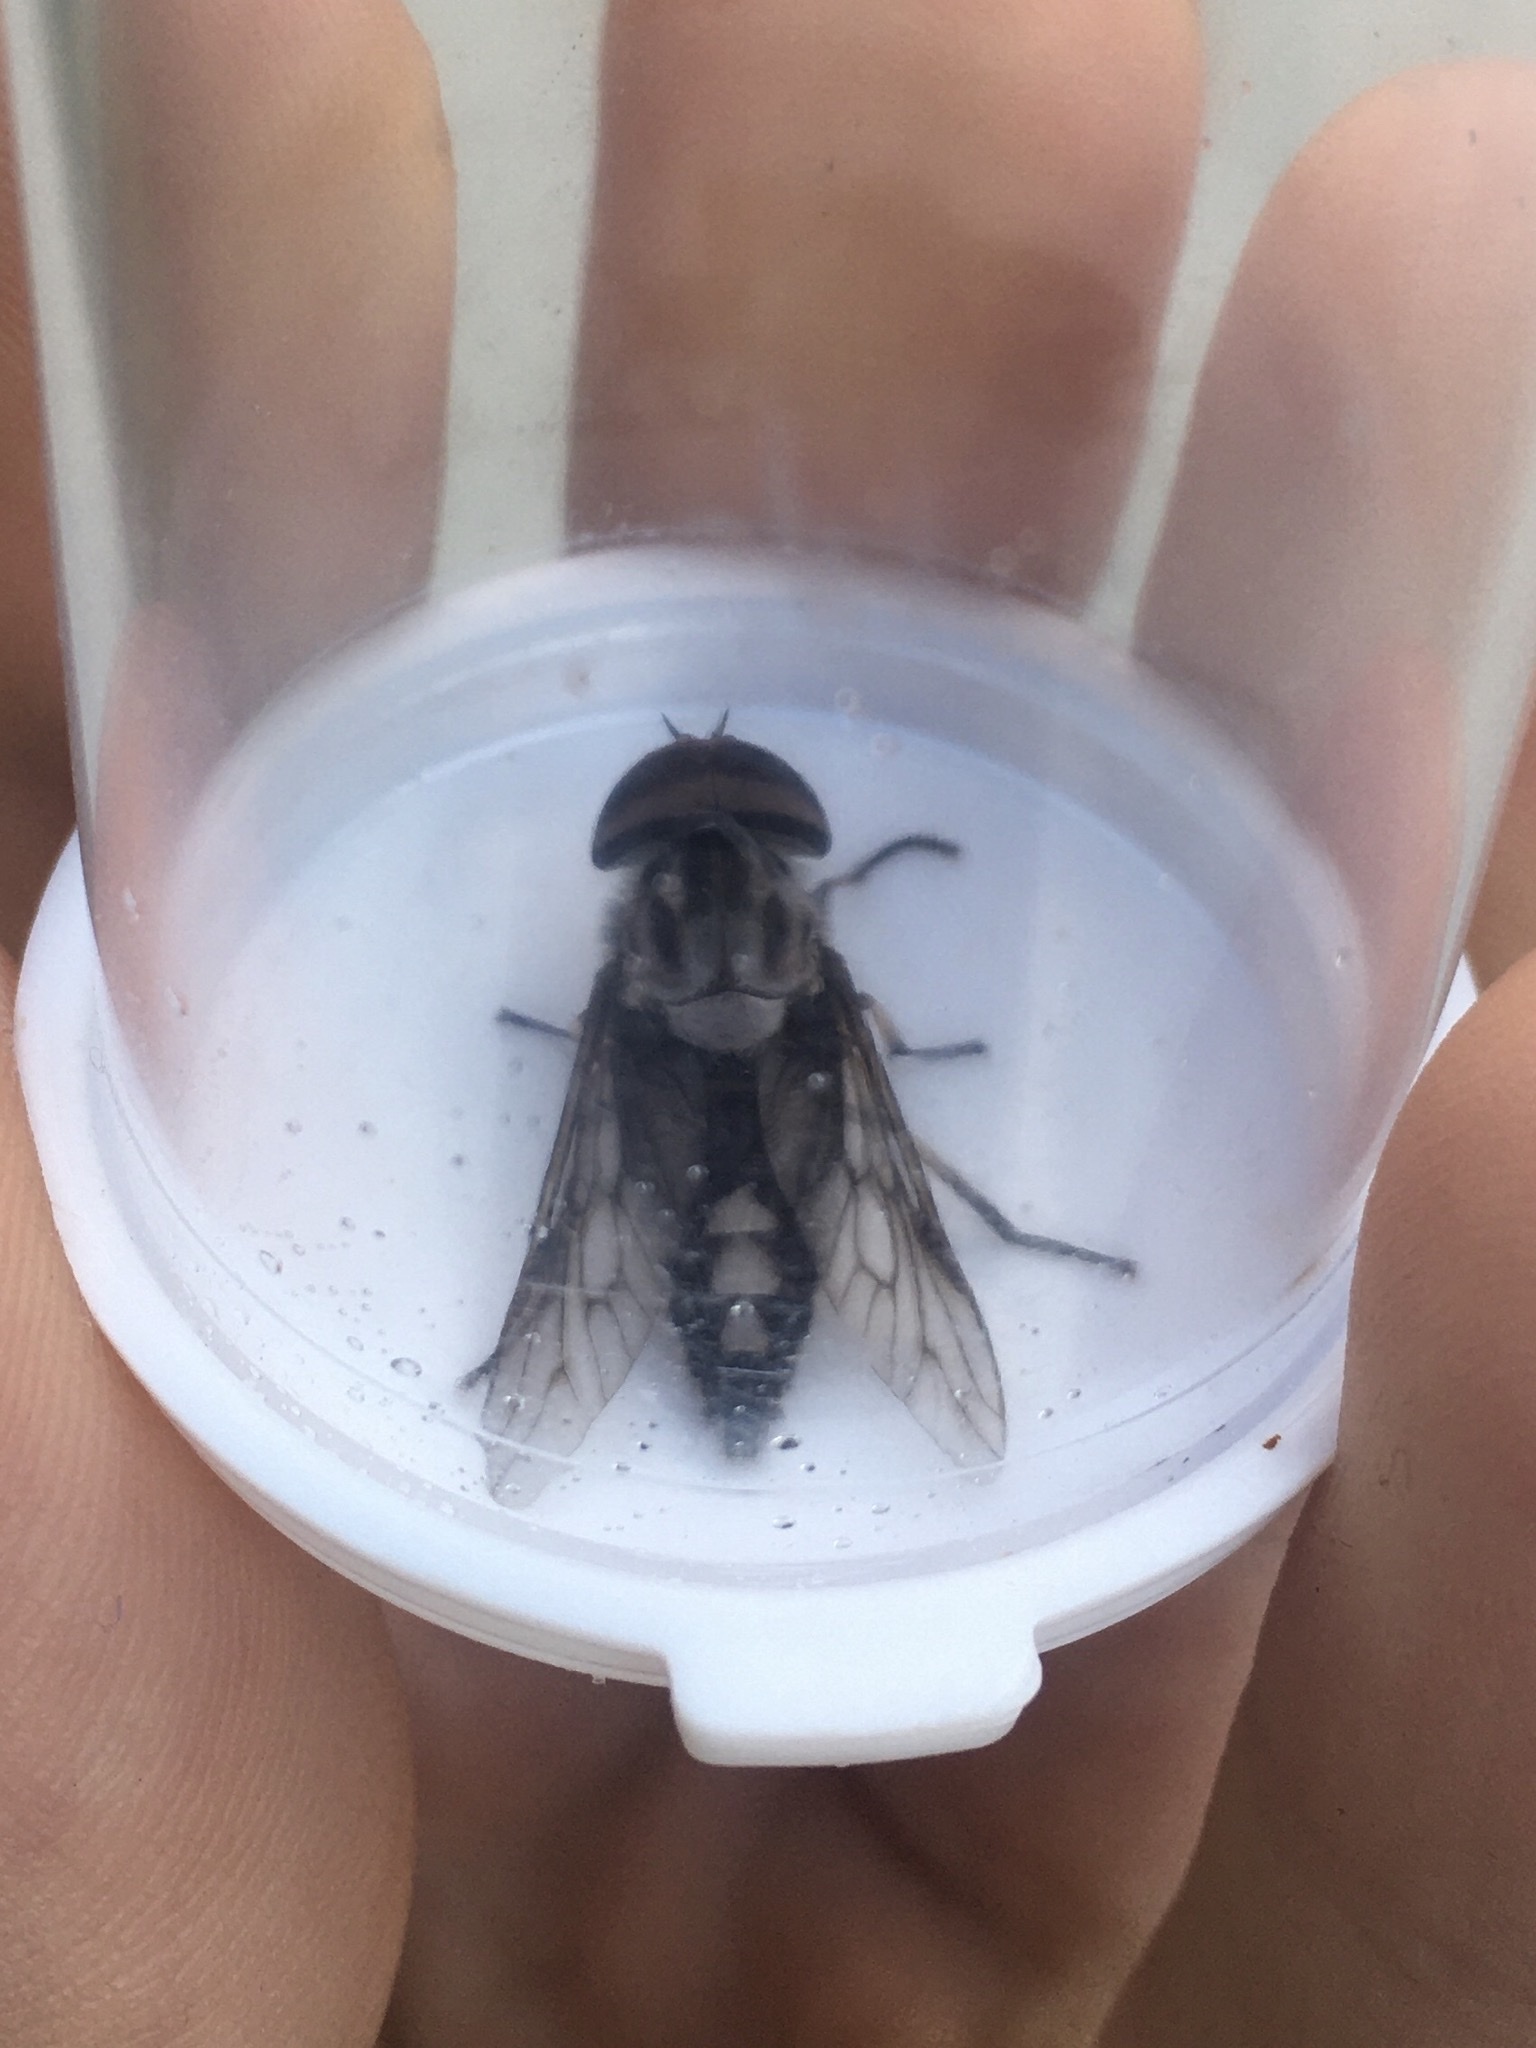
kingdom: Animalia
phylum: Arthropoda
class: Insecta
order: Diptera
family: Tabanidae
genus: Tabanus
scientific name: Tabanus trimaculatus
